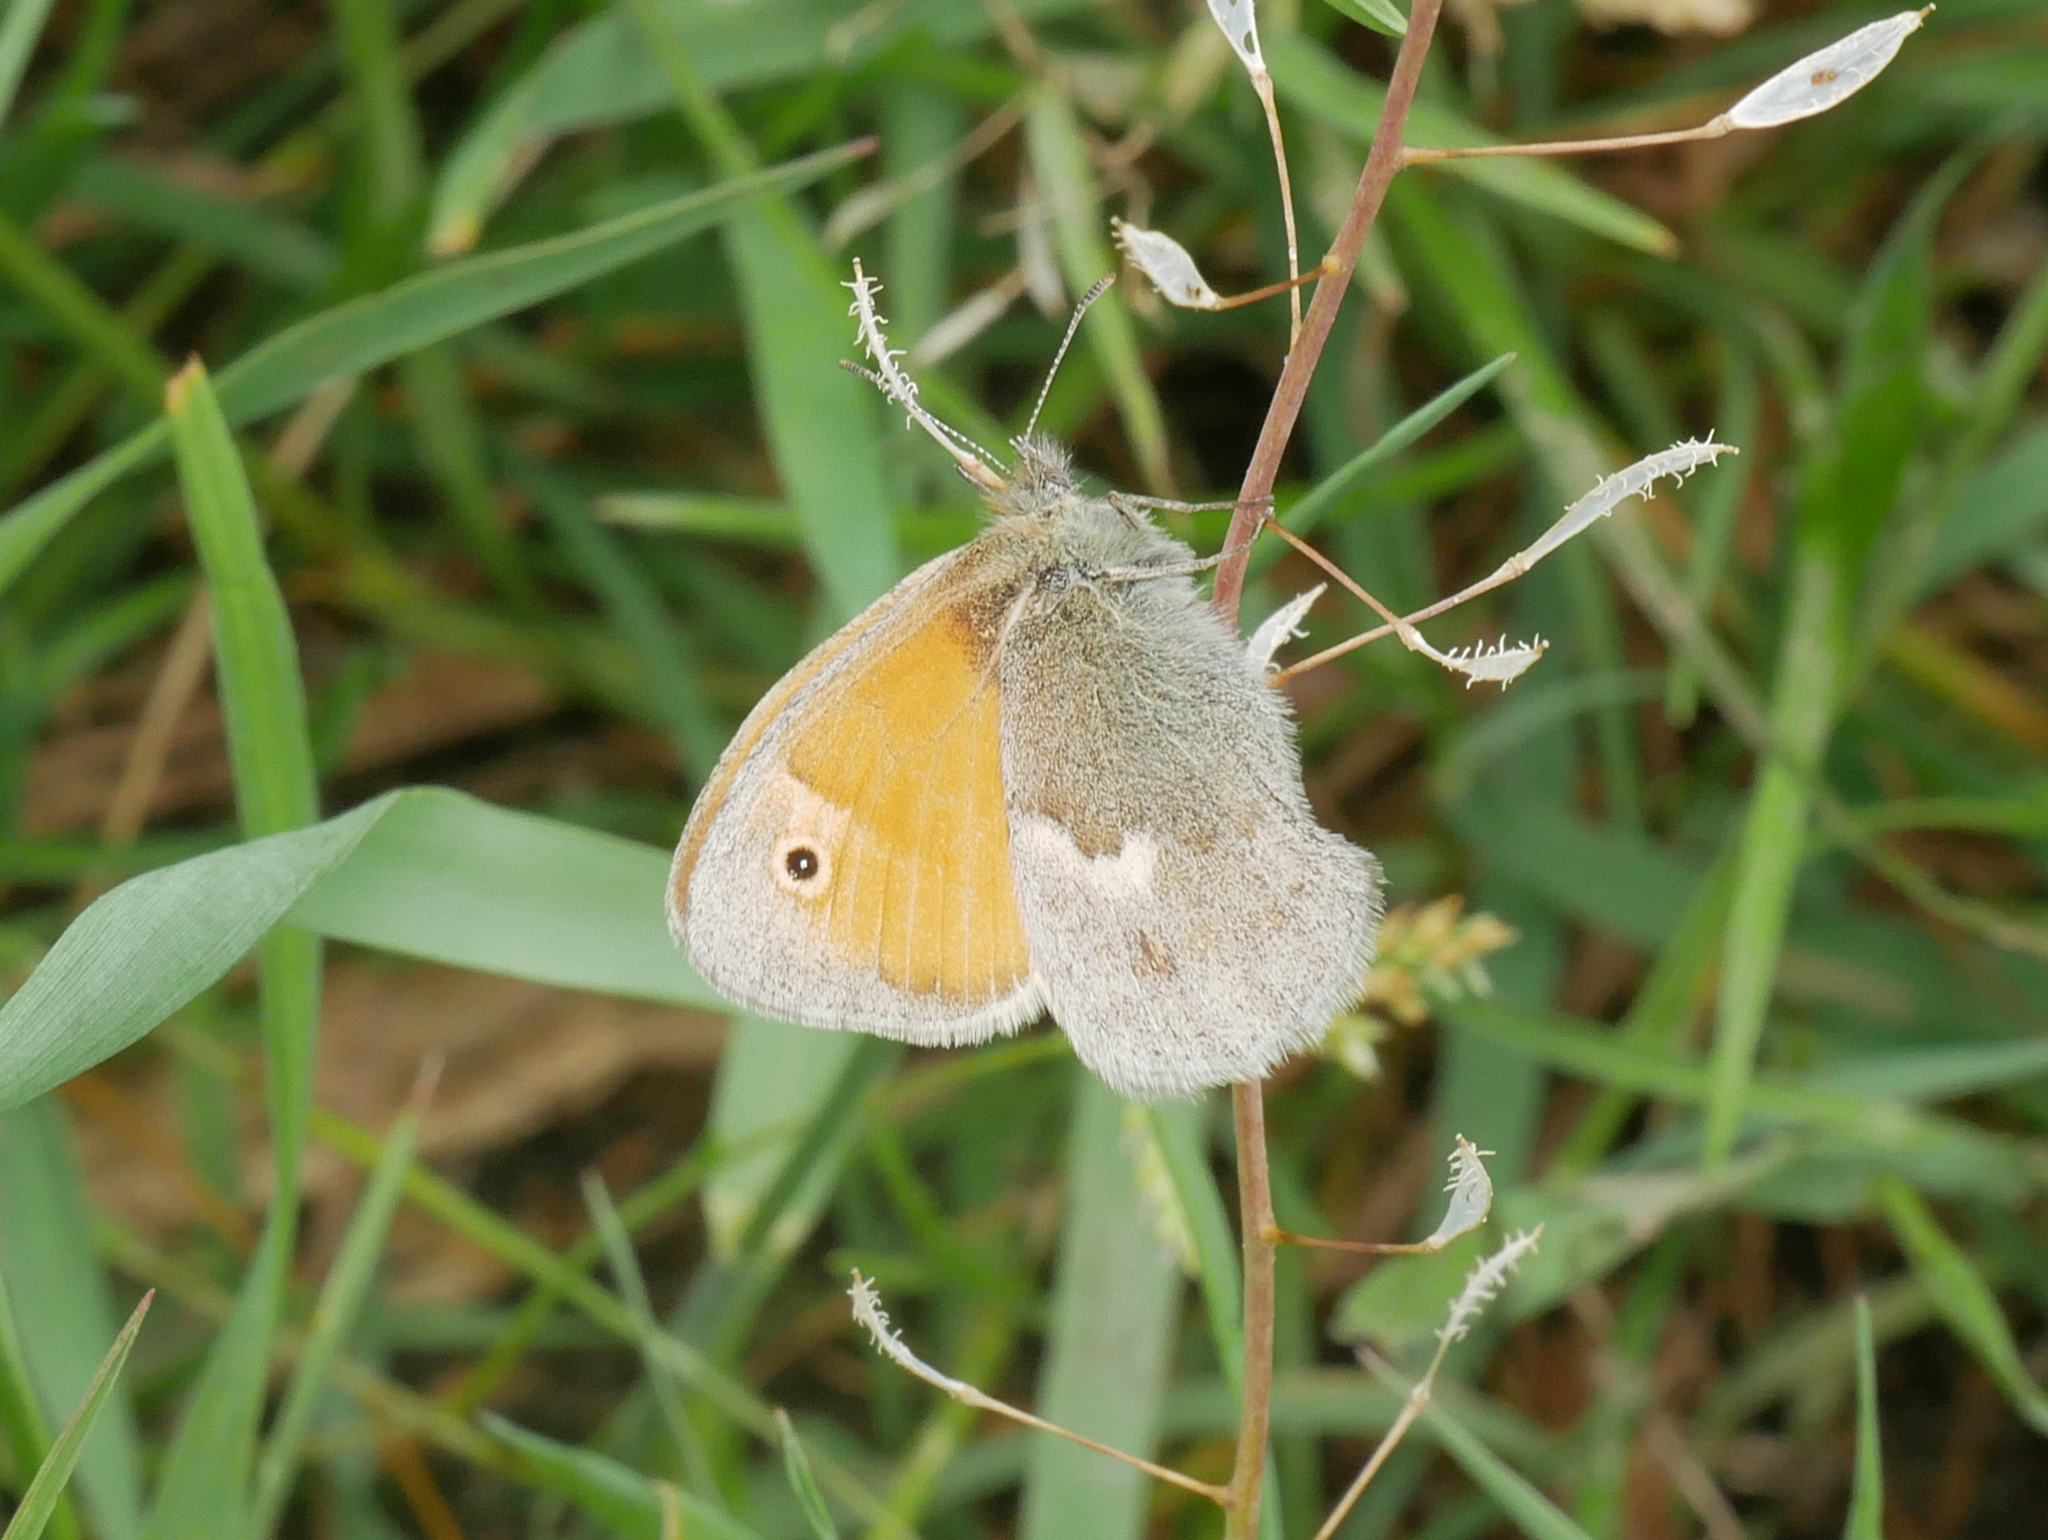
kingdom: Animalia
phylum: Arthropoda
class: Insecta
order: Lepidoptera
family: Nymphalidae
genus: Coenonympha
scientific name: Coenonympha pamphilus
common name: Small heath
